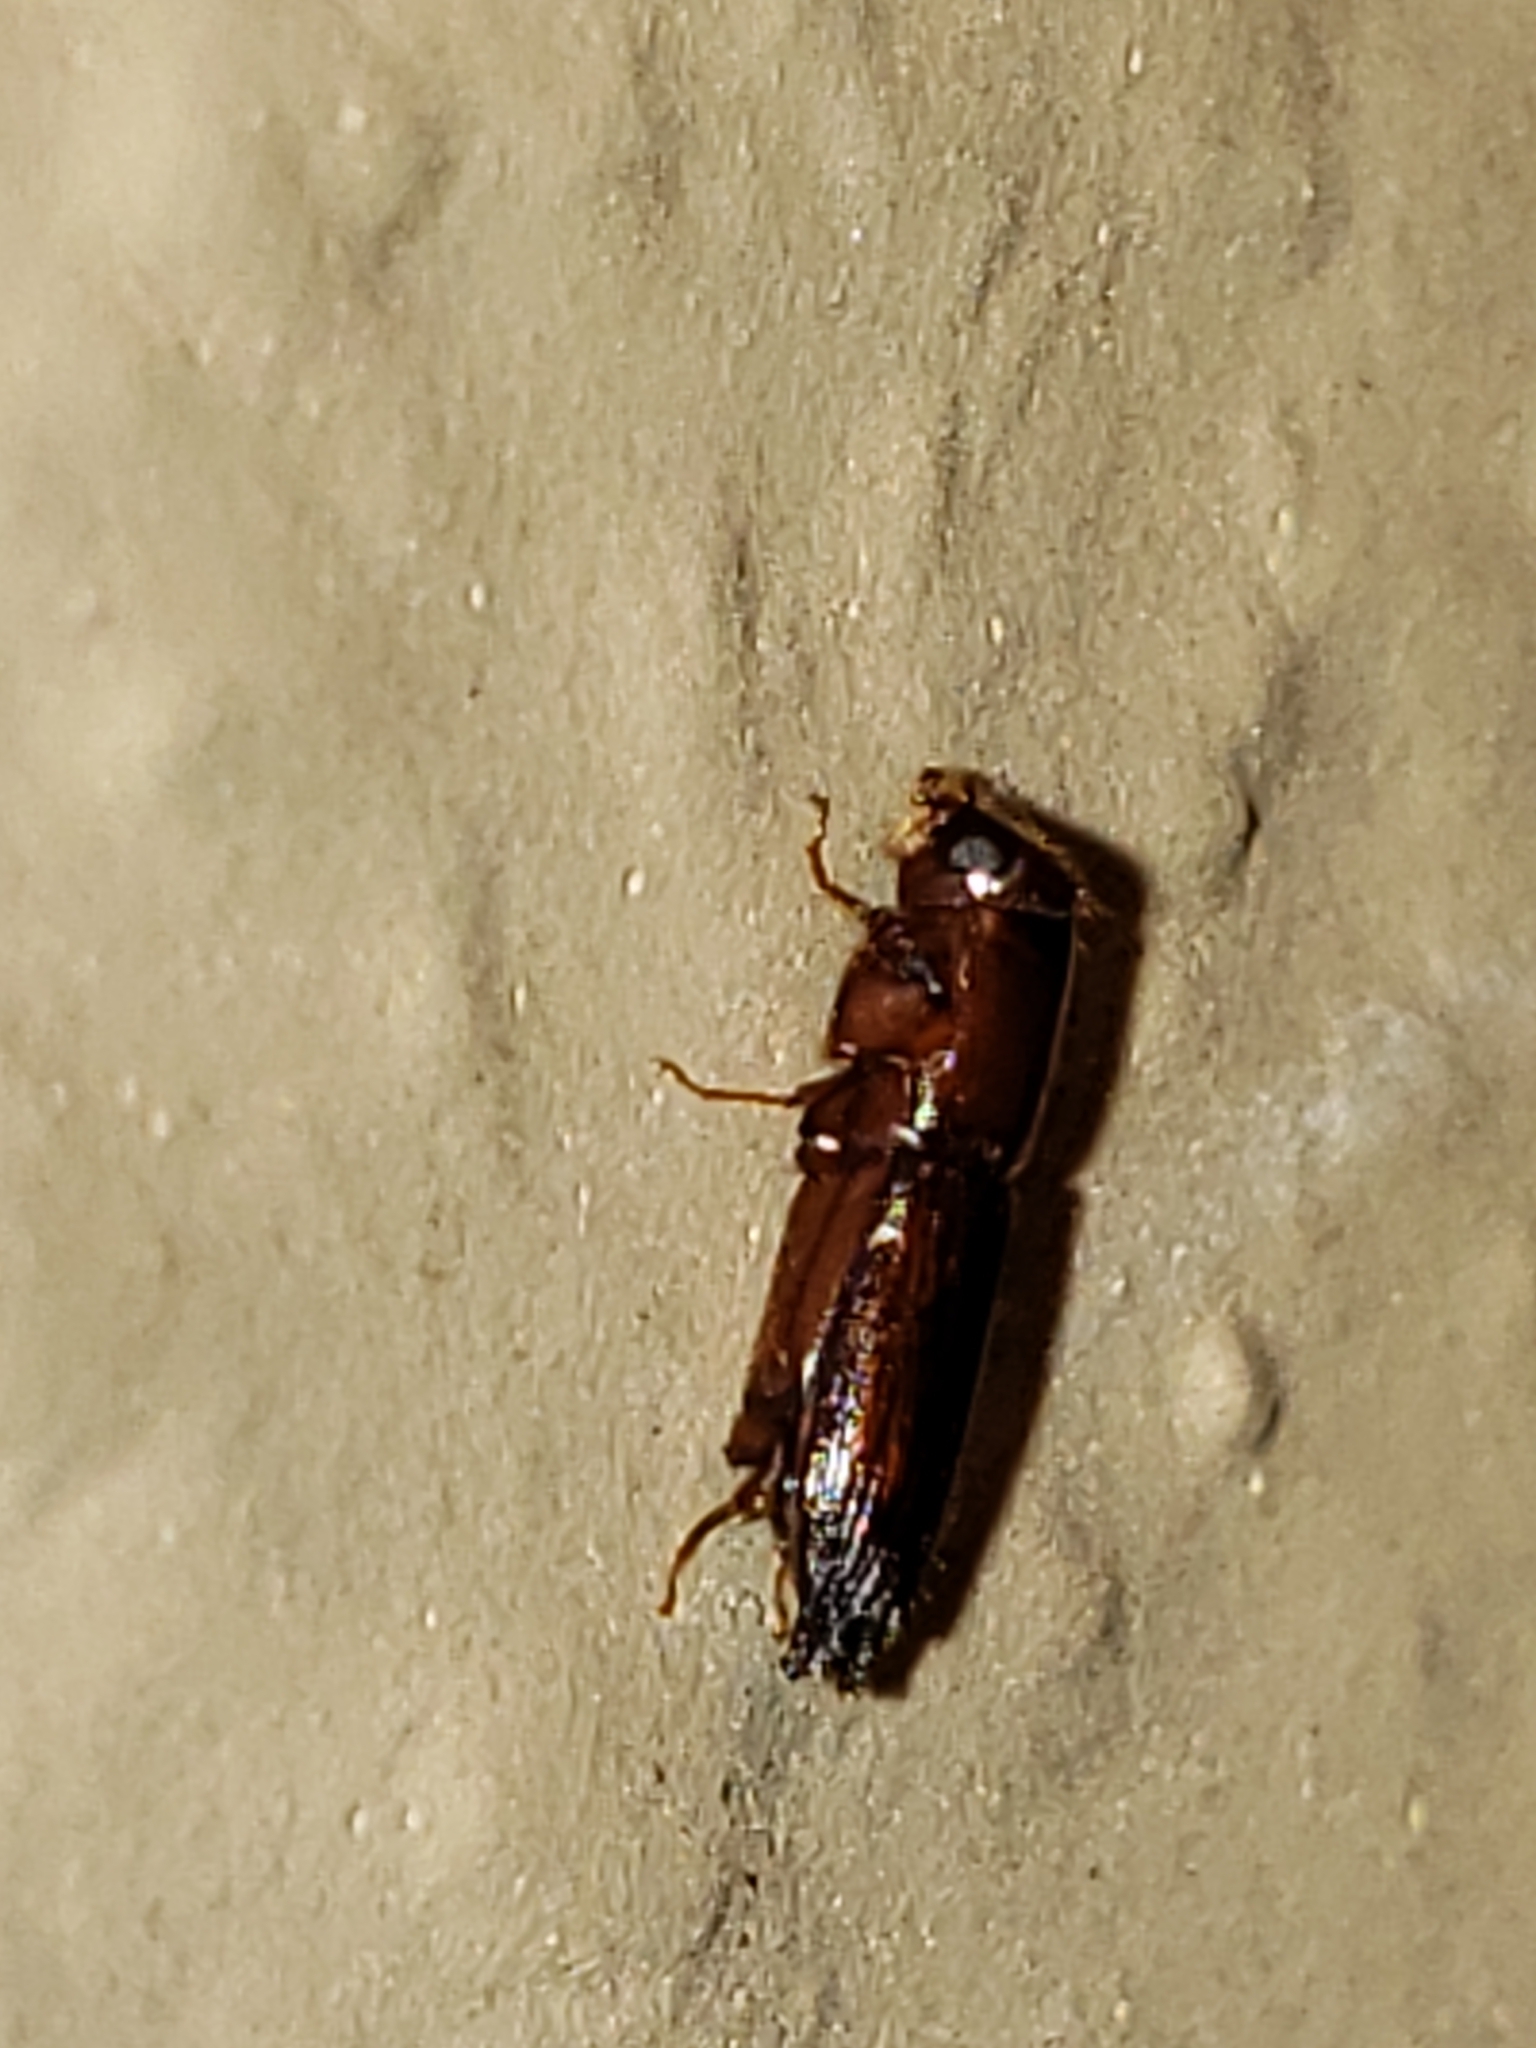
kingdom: Animalia
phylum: Arthropoda
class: Insecta
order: Coleoptera
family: Curculionidae
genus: Euplatypus
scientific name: Euplatypus compositus
